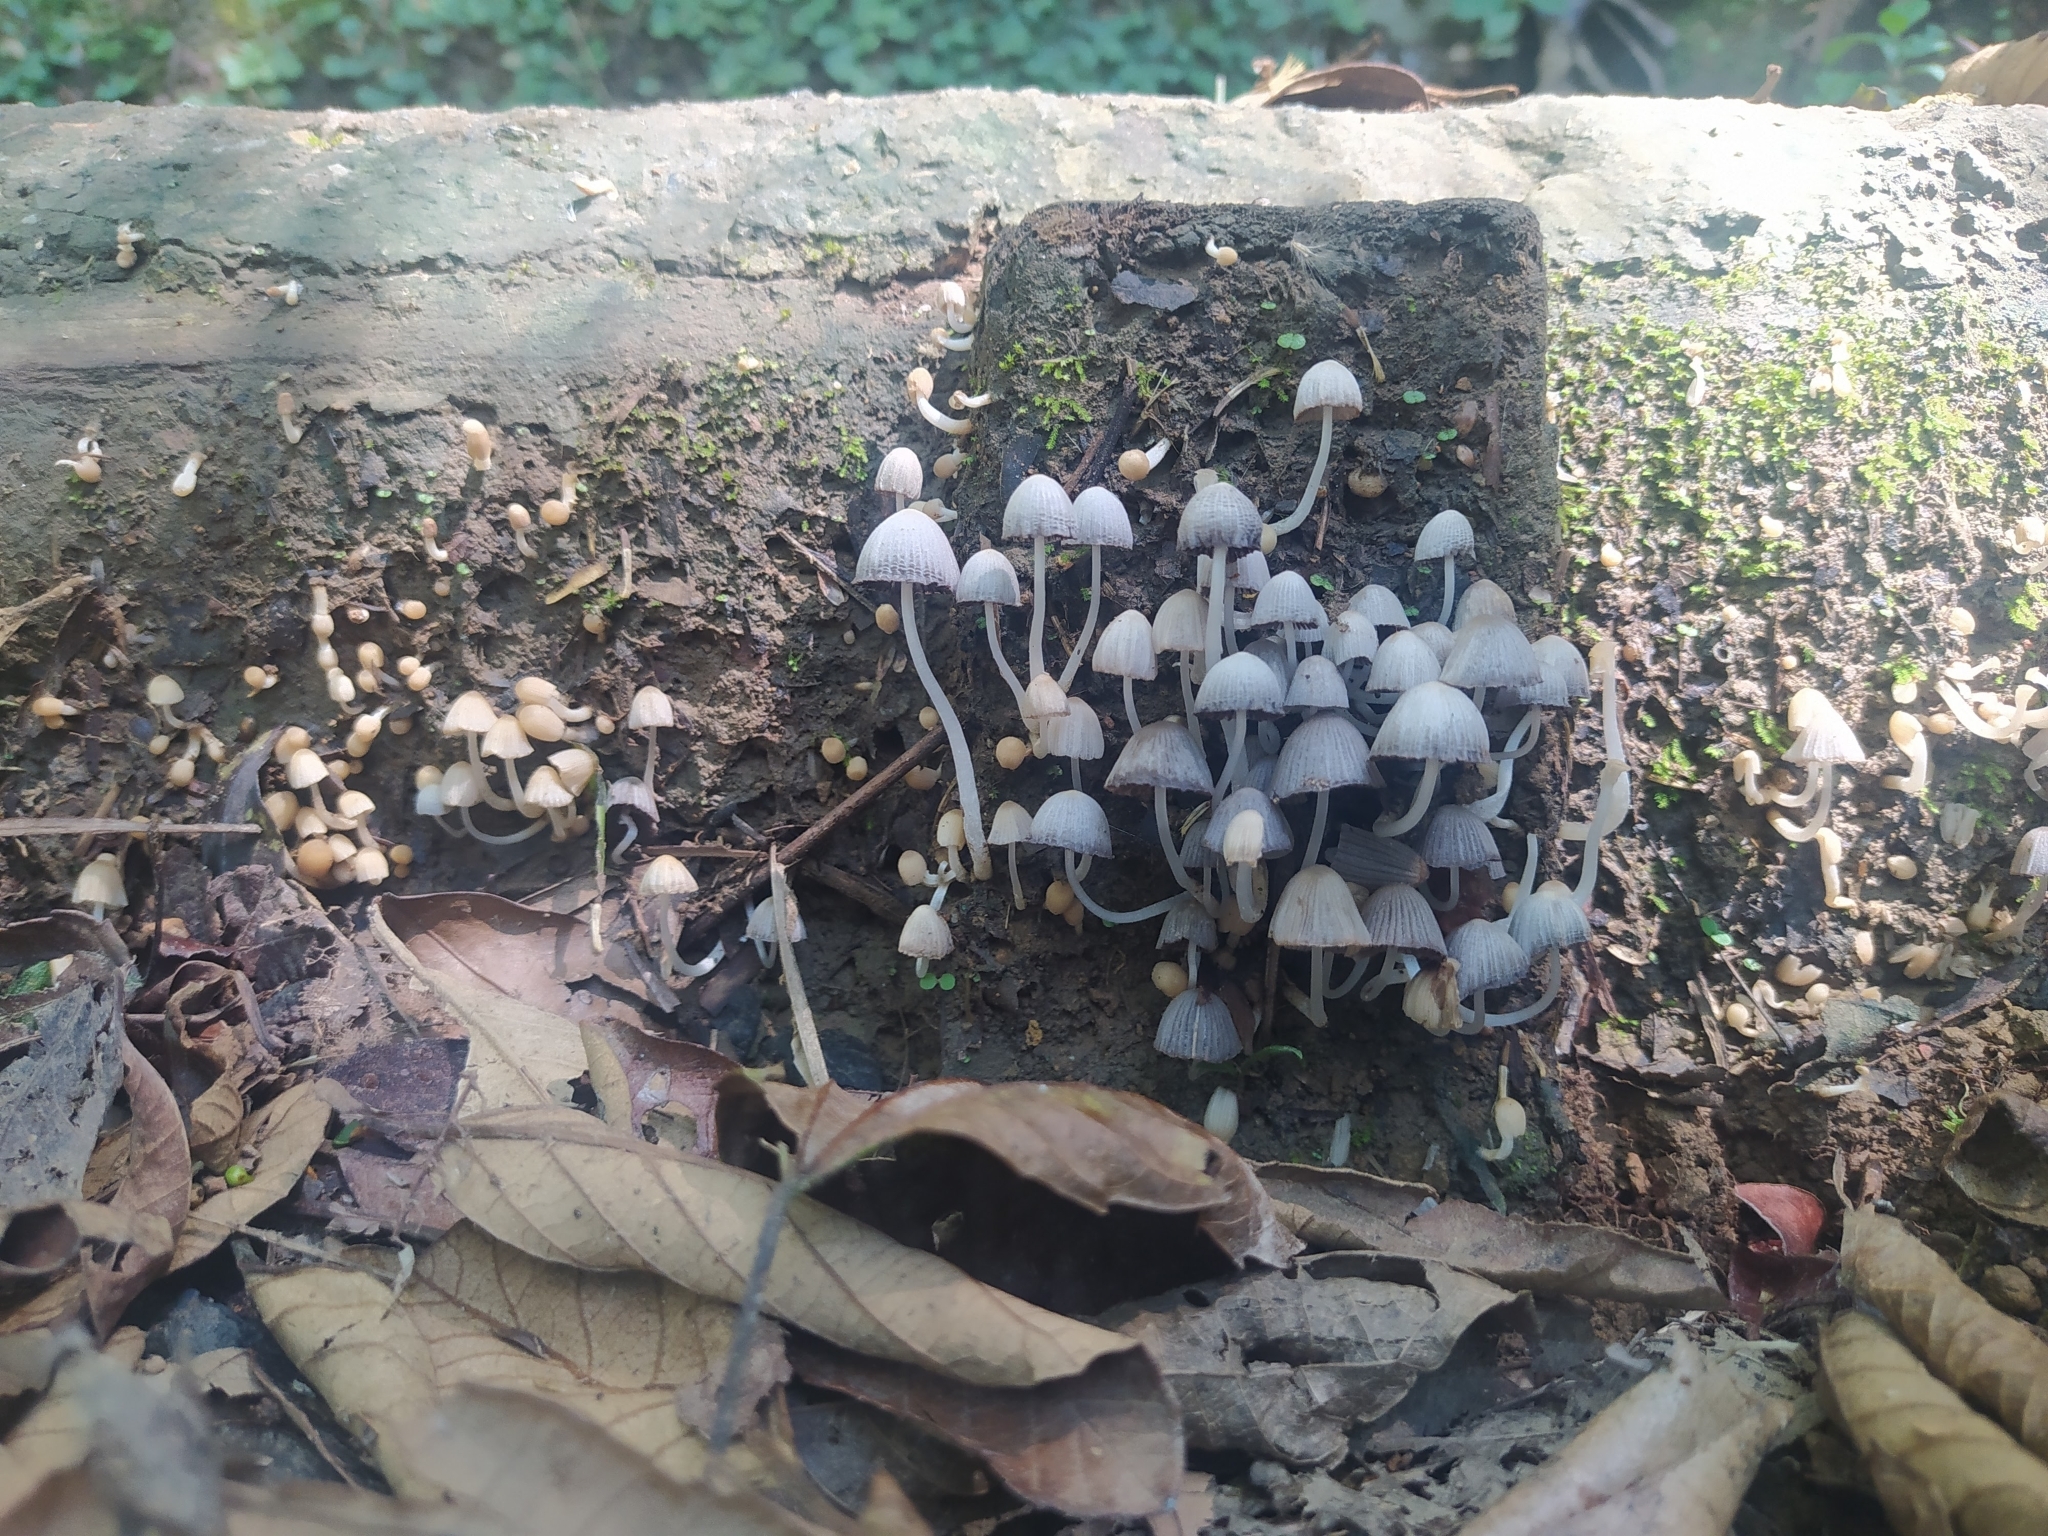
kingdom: Fungi
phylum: Basidiomycota
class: Agaricomycetes
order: Agaricales
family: Psathyrellaceae
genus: Coprinellus
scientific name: Coprinellus disseminatus
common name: Fairies' bonnets
